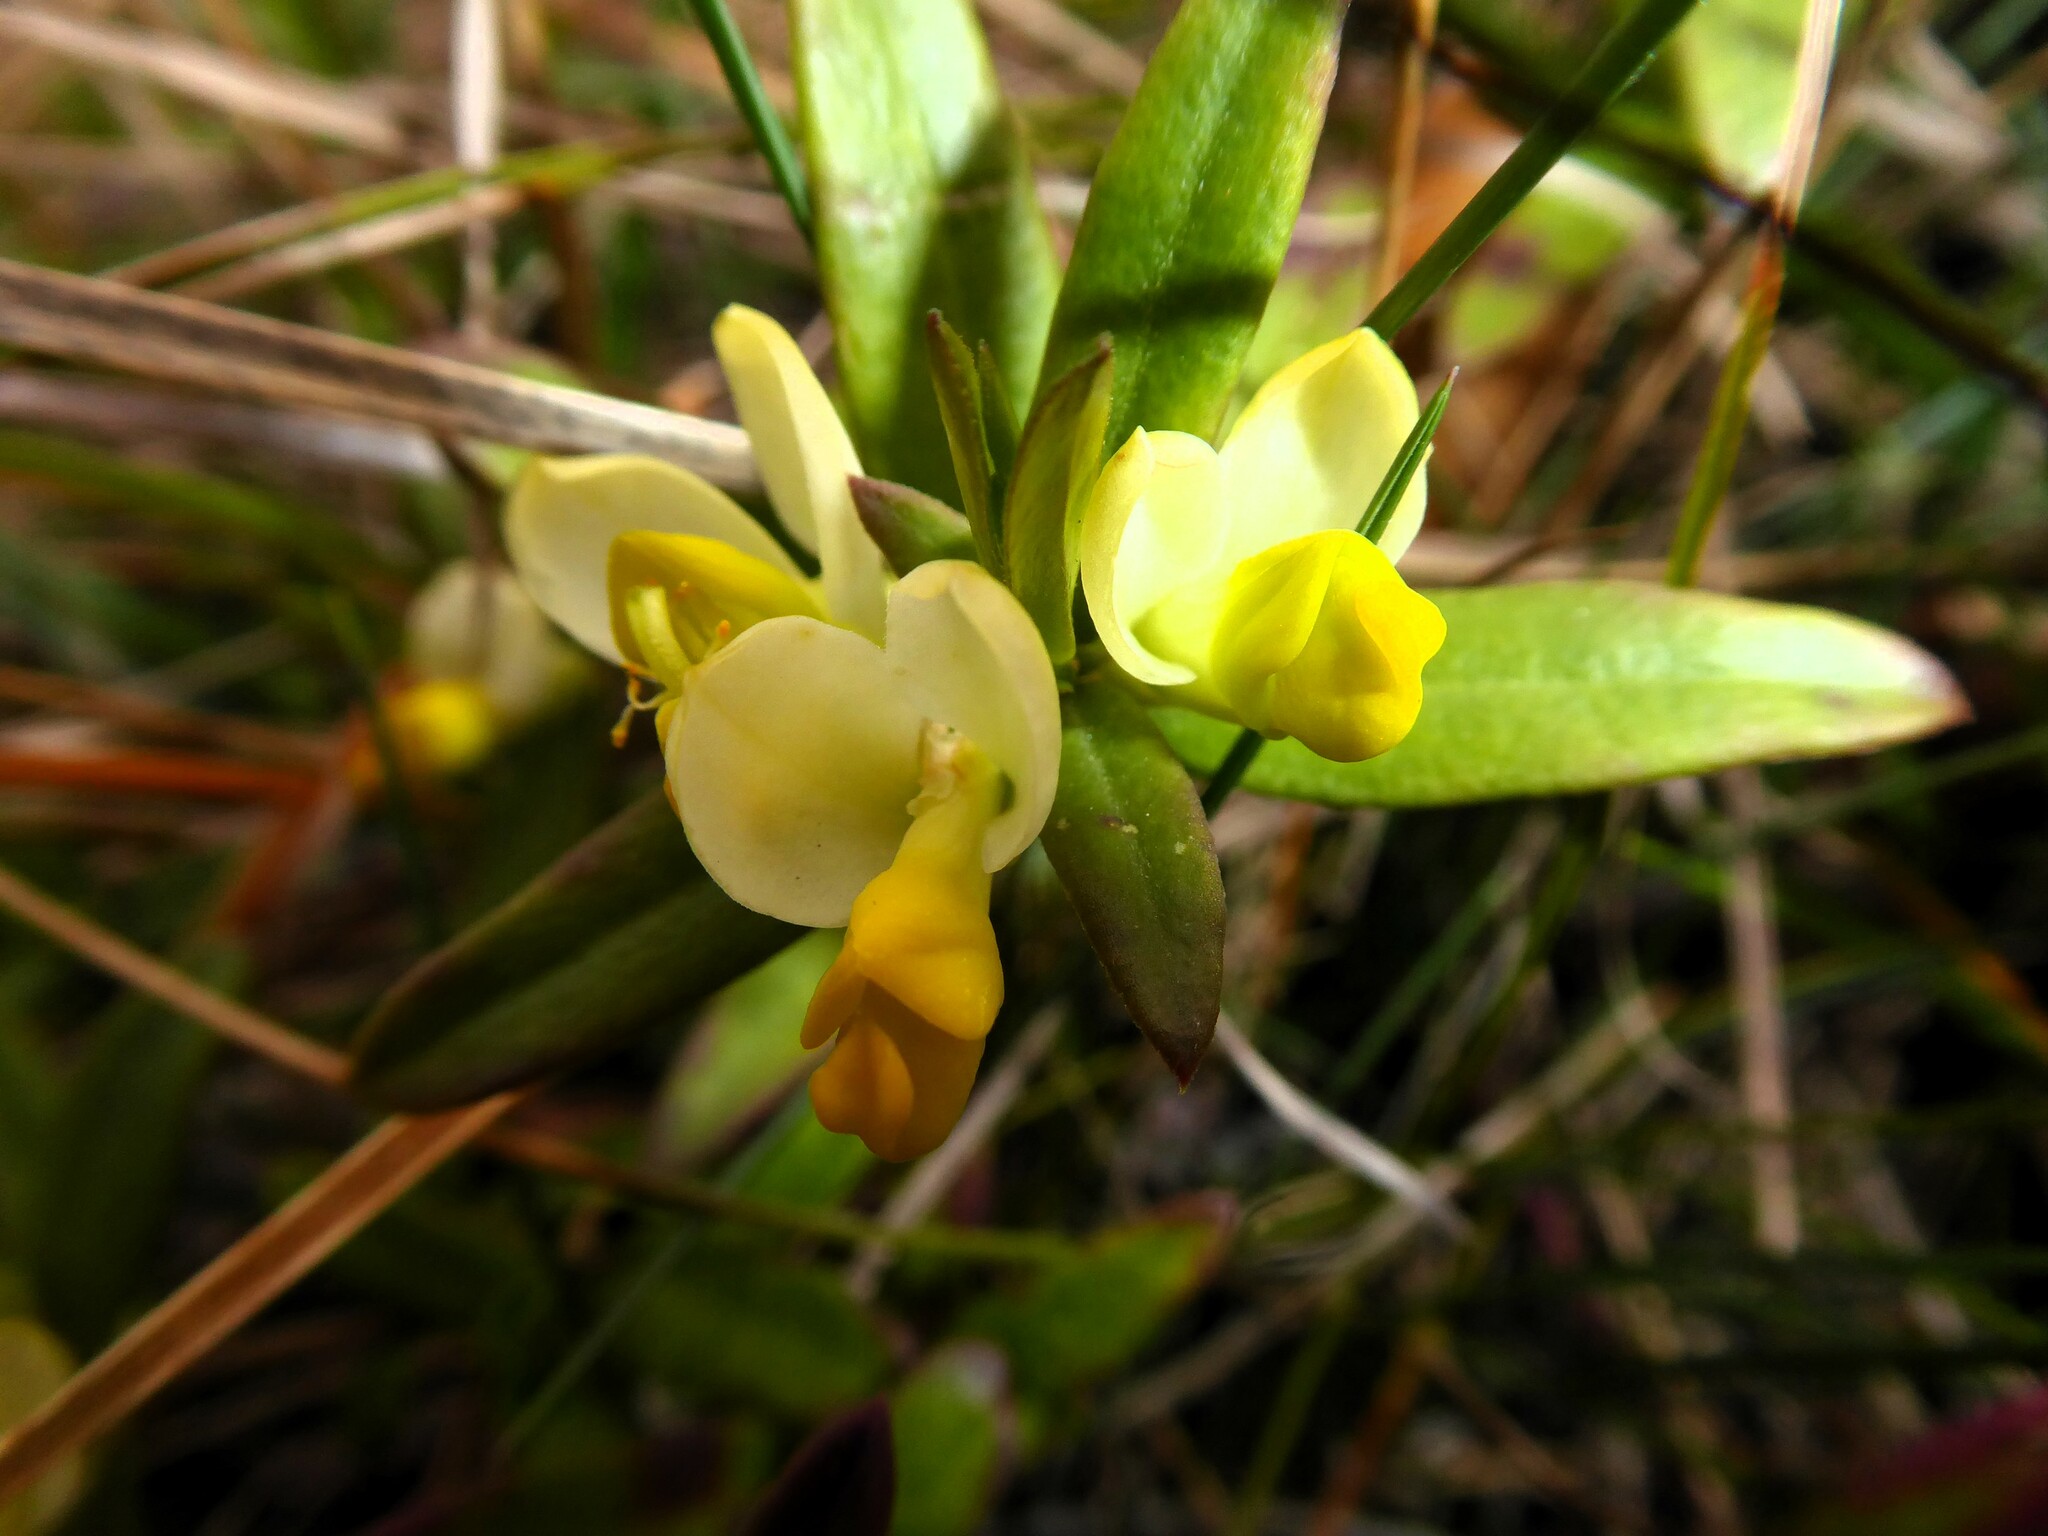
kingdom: Plantae
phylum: Tracheophyta
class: Magnoliopsida
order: Fabales
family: Polygalaceae
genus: Polygaloides
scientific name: Polygaloides chamaebuxus
